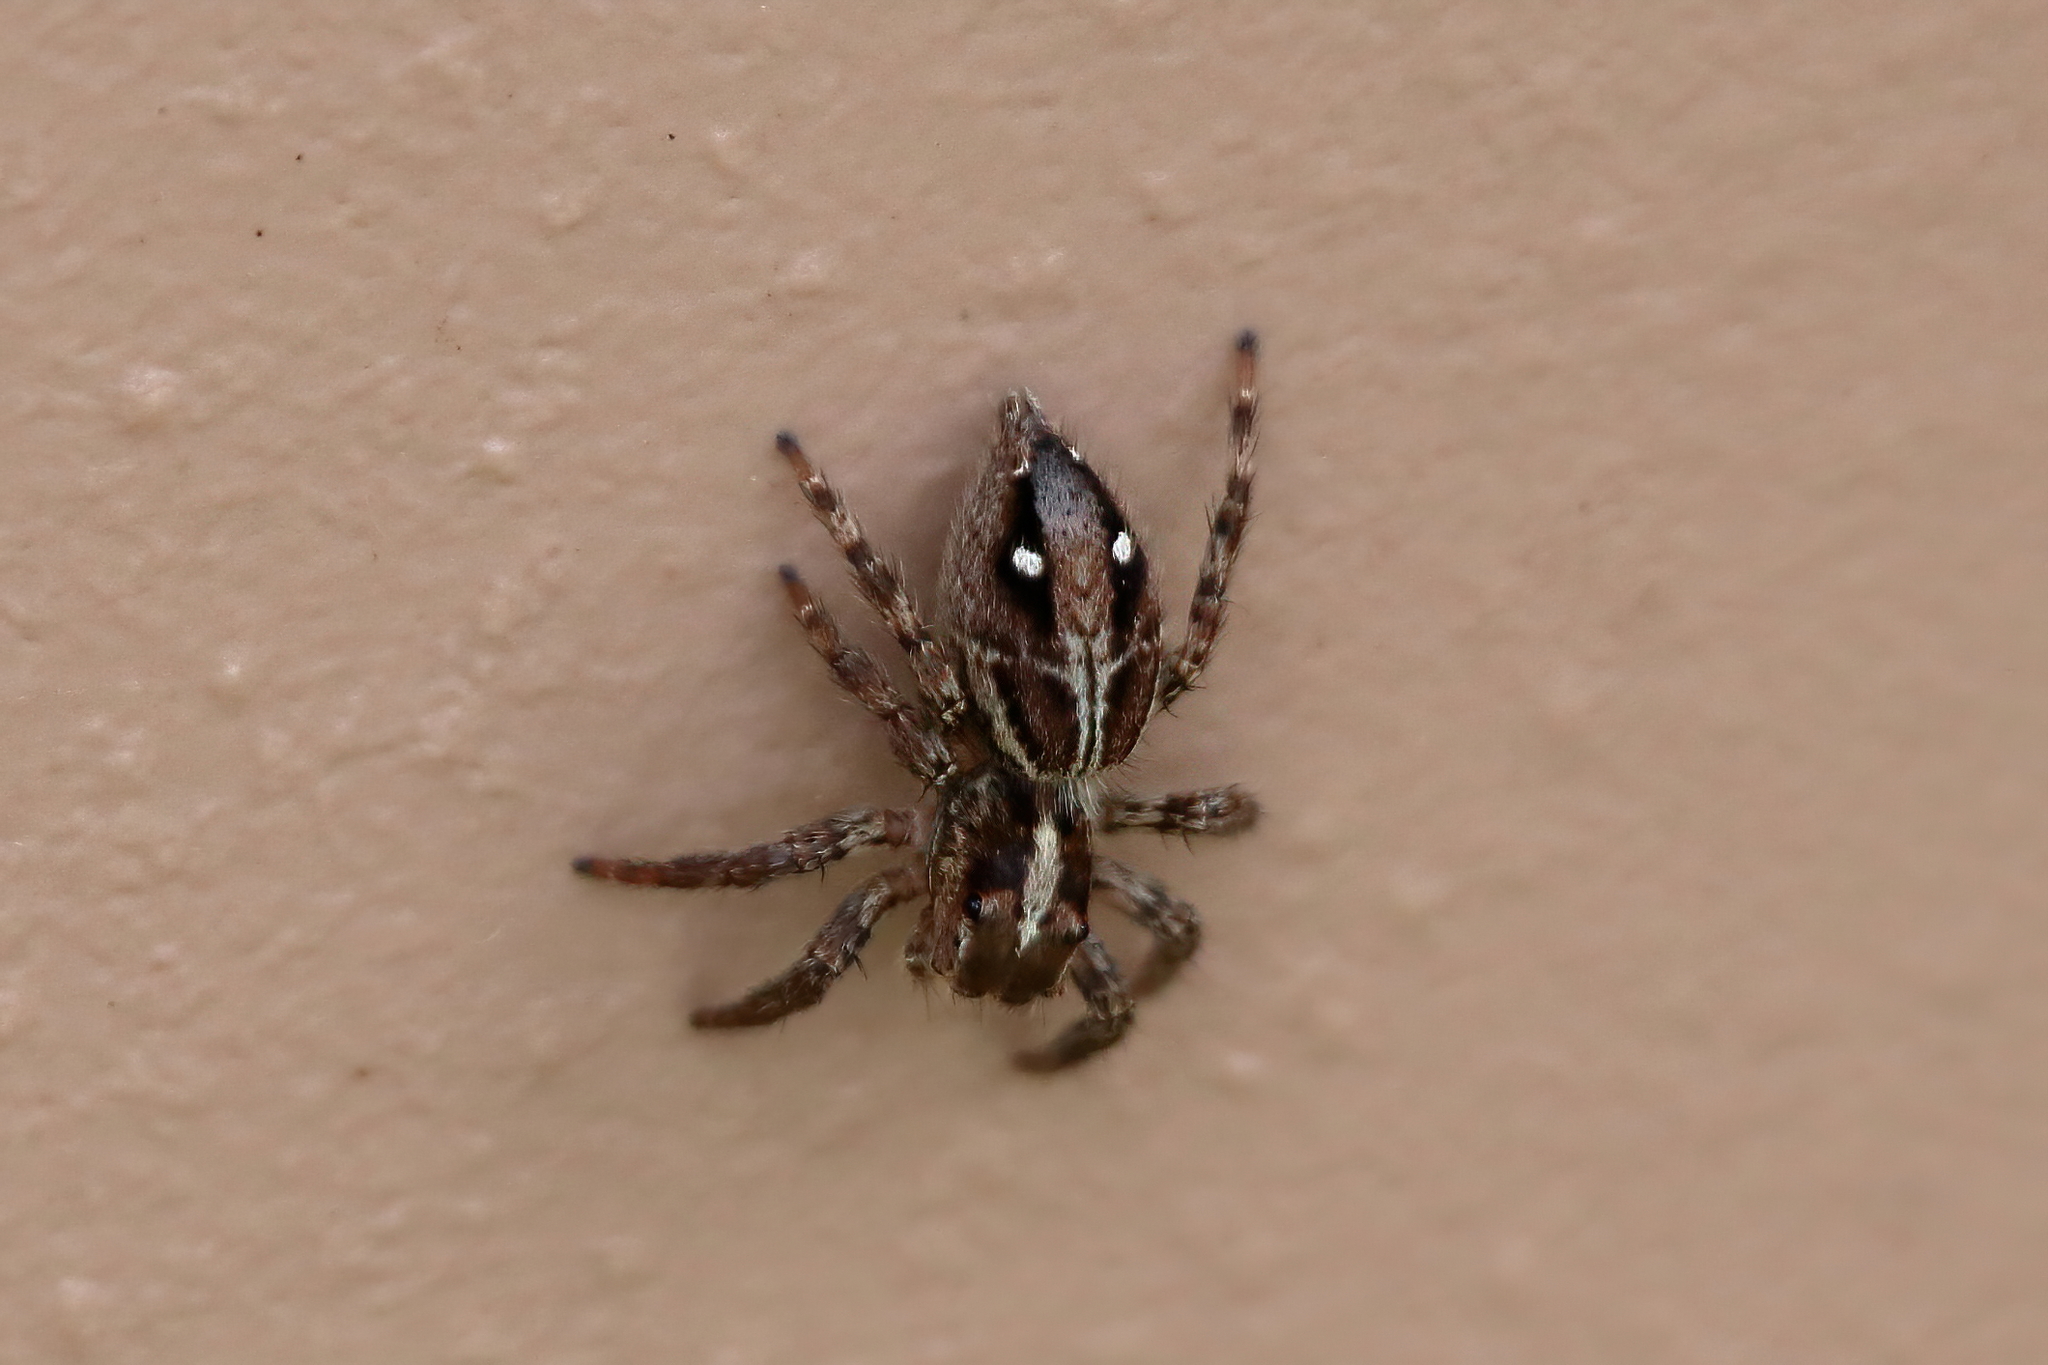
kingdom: Animalia
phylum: Arthropoda
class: Arachnida
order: Araneae
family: Salticidae
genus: Plexippus
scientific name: Plexippus paykulli
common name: Pantropical jumper
